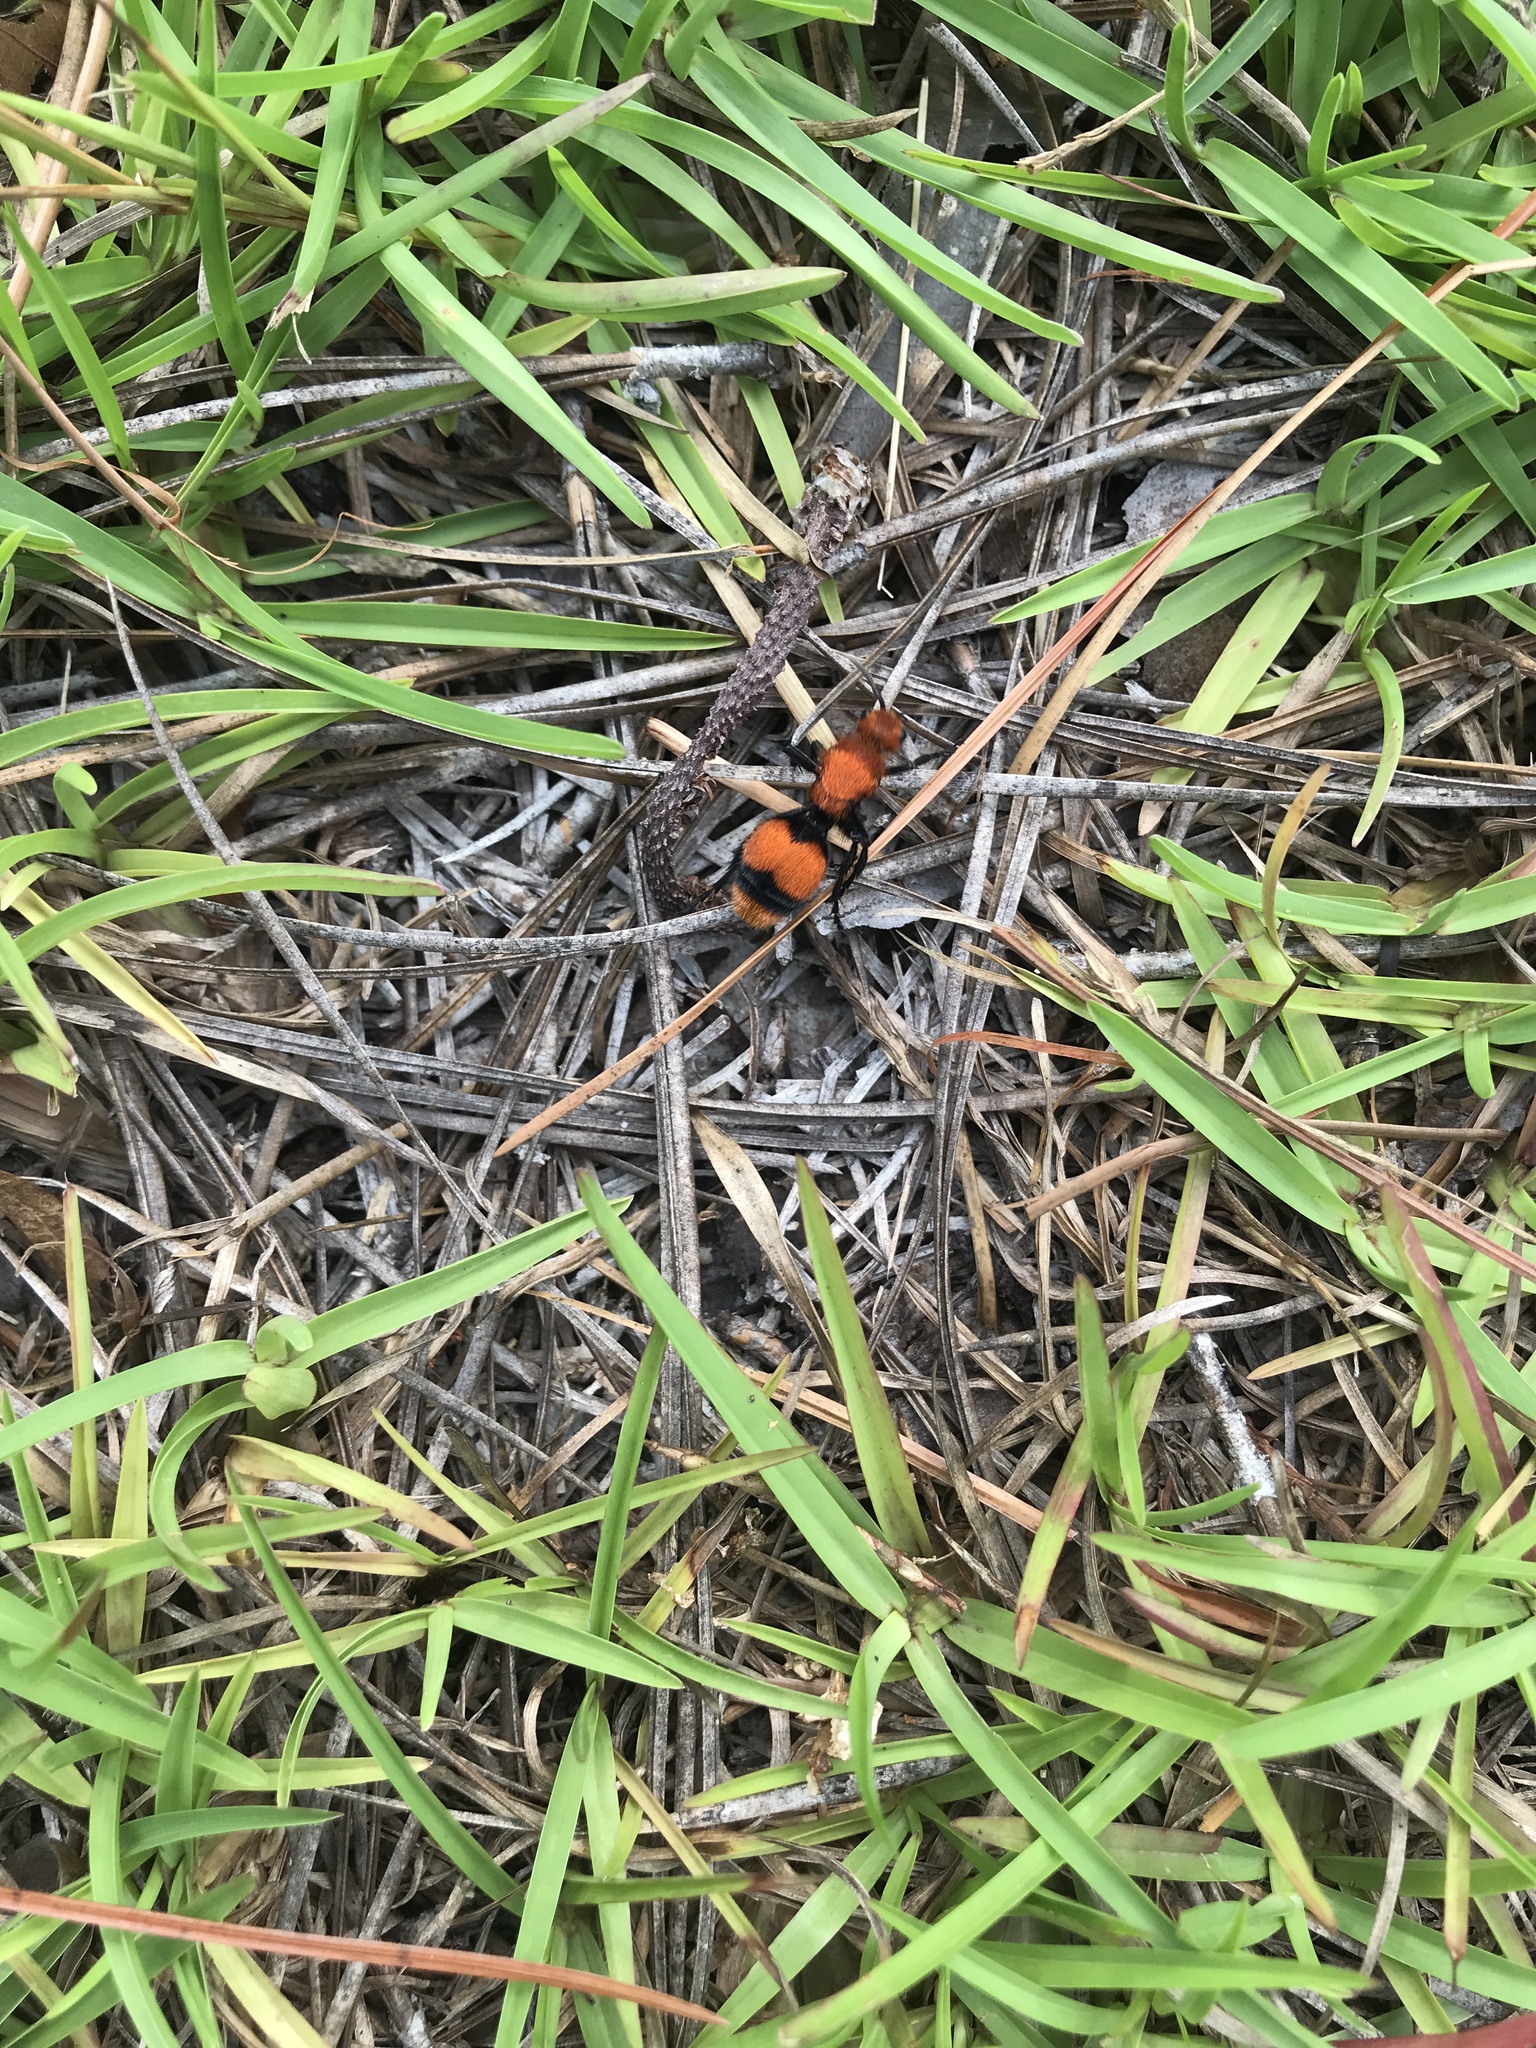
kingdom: Animalia
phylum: Arthropoda
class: Insecta
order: Hymenoptera
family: Mutillidae
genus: Dasymutilla
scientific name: Dasymutilla occidentalis
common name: Common eastern velvet ant
